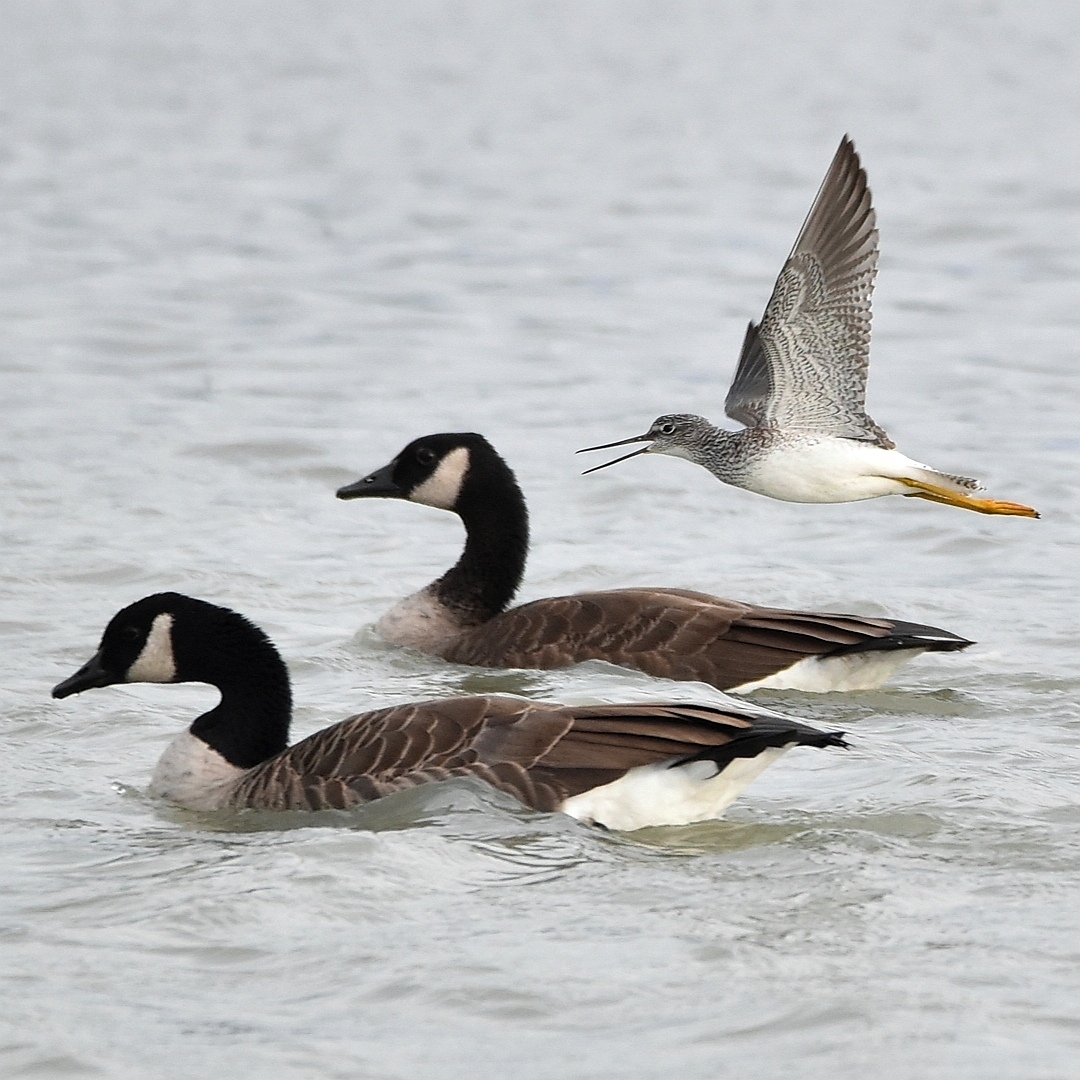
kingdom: Animalia
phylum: Chordata
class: Aves
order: Charadriiformes
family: Scolopacidae
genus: Tringa
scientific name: Tringa melanoleuca
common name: Greater yellowlegs
